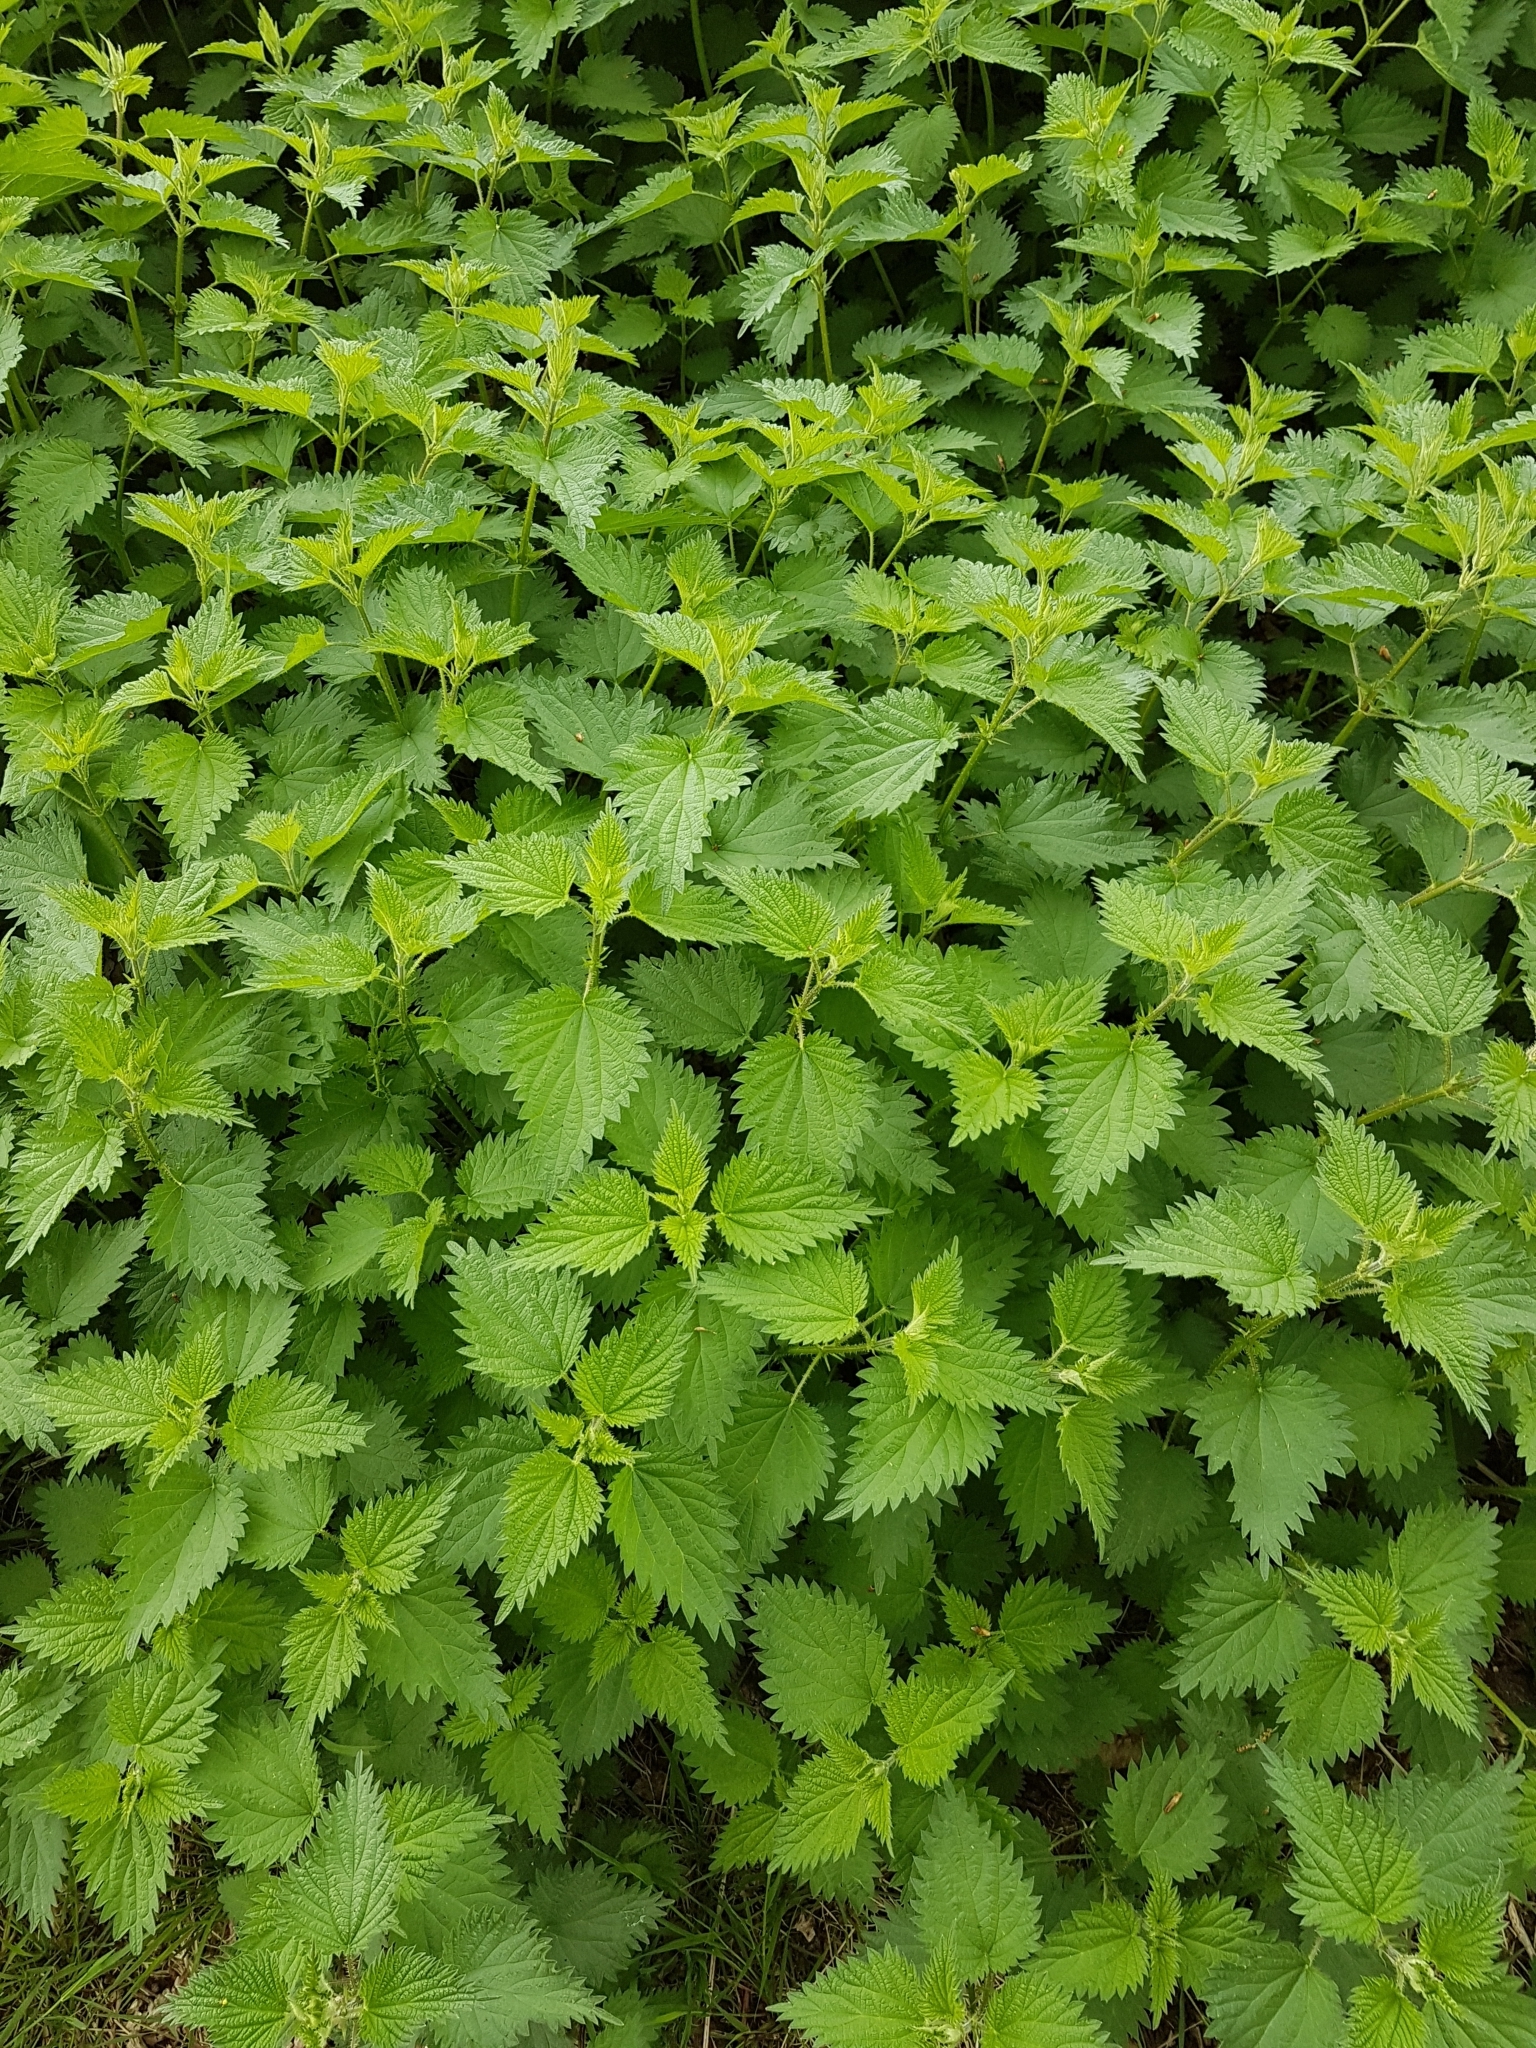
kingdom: Plantae
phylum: Tracheophyta
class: Magnoliopsida
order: Rosales
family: Urticaceae
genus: Urtica
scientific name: Urtica dioica
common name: Common nettle
